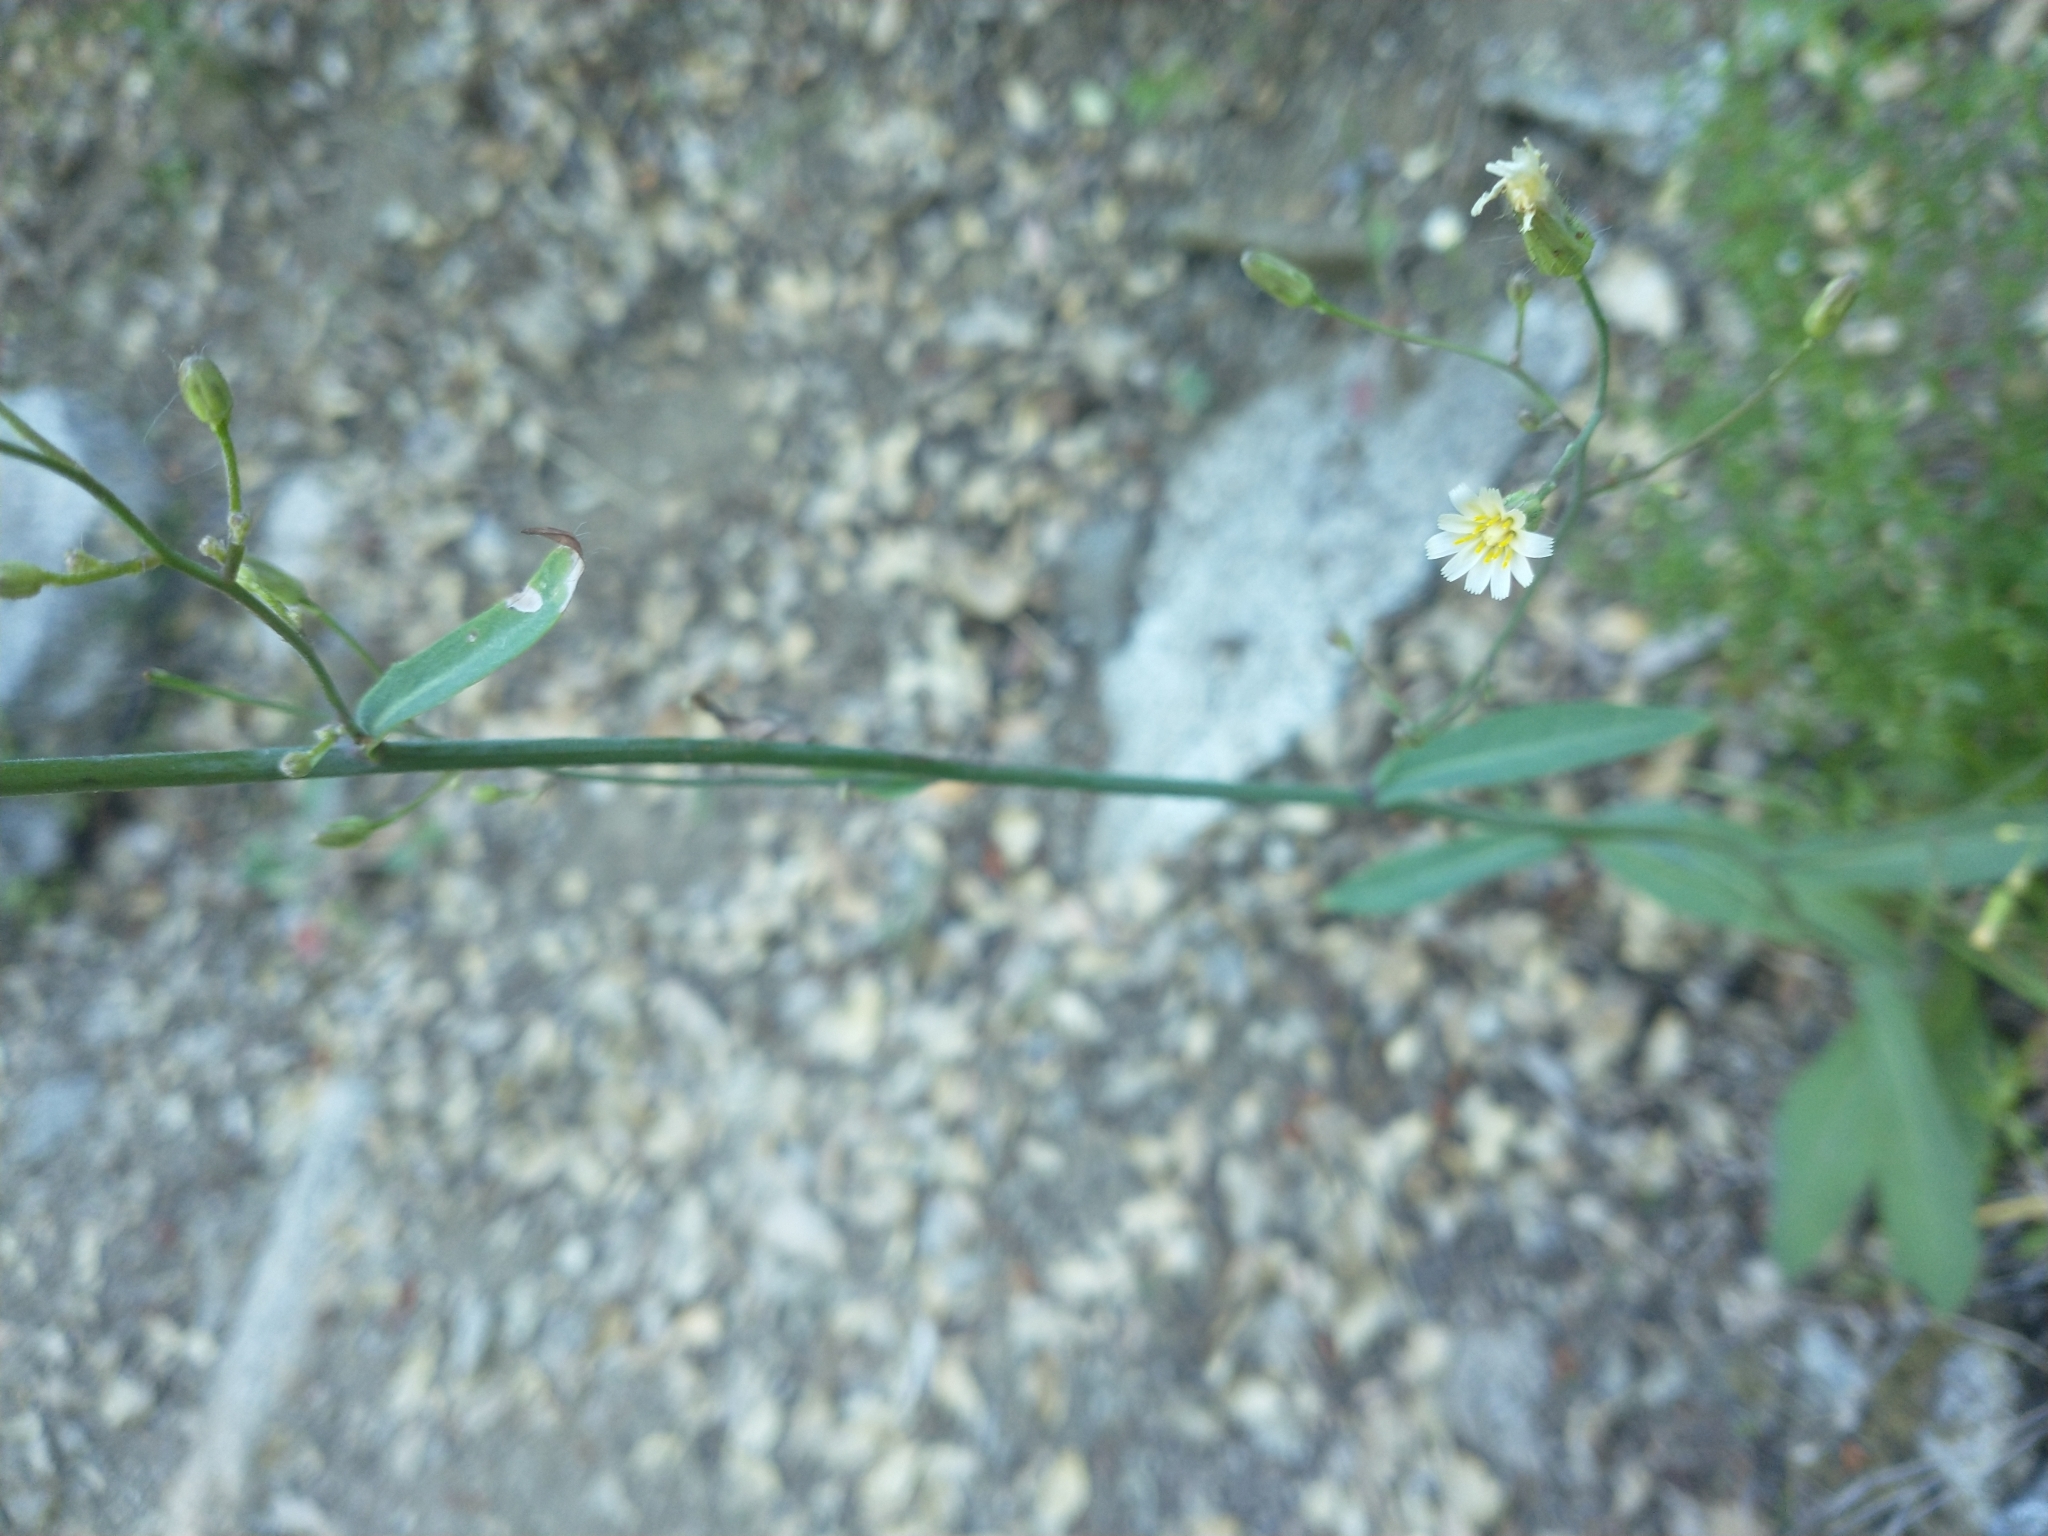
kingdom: Plantae
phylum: Tracheophyta
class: Magnoliopsida
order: Asterales
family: Asteraceae
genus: Hieracium
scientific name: Hieracium albiflorum
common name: White hawkweed
